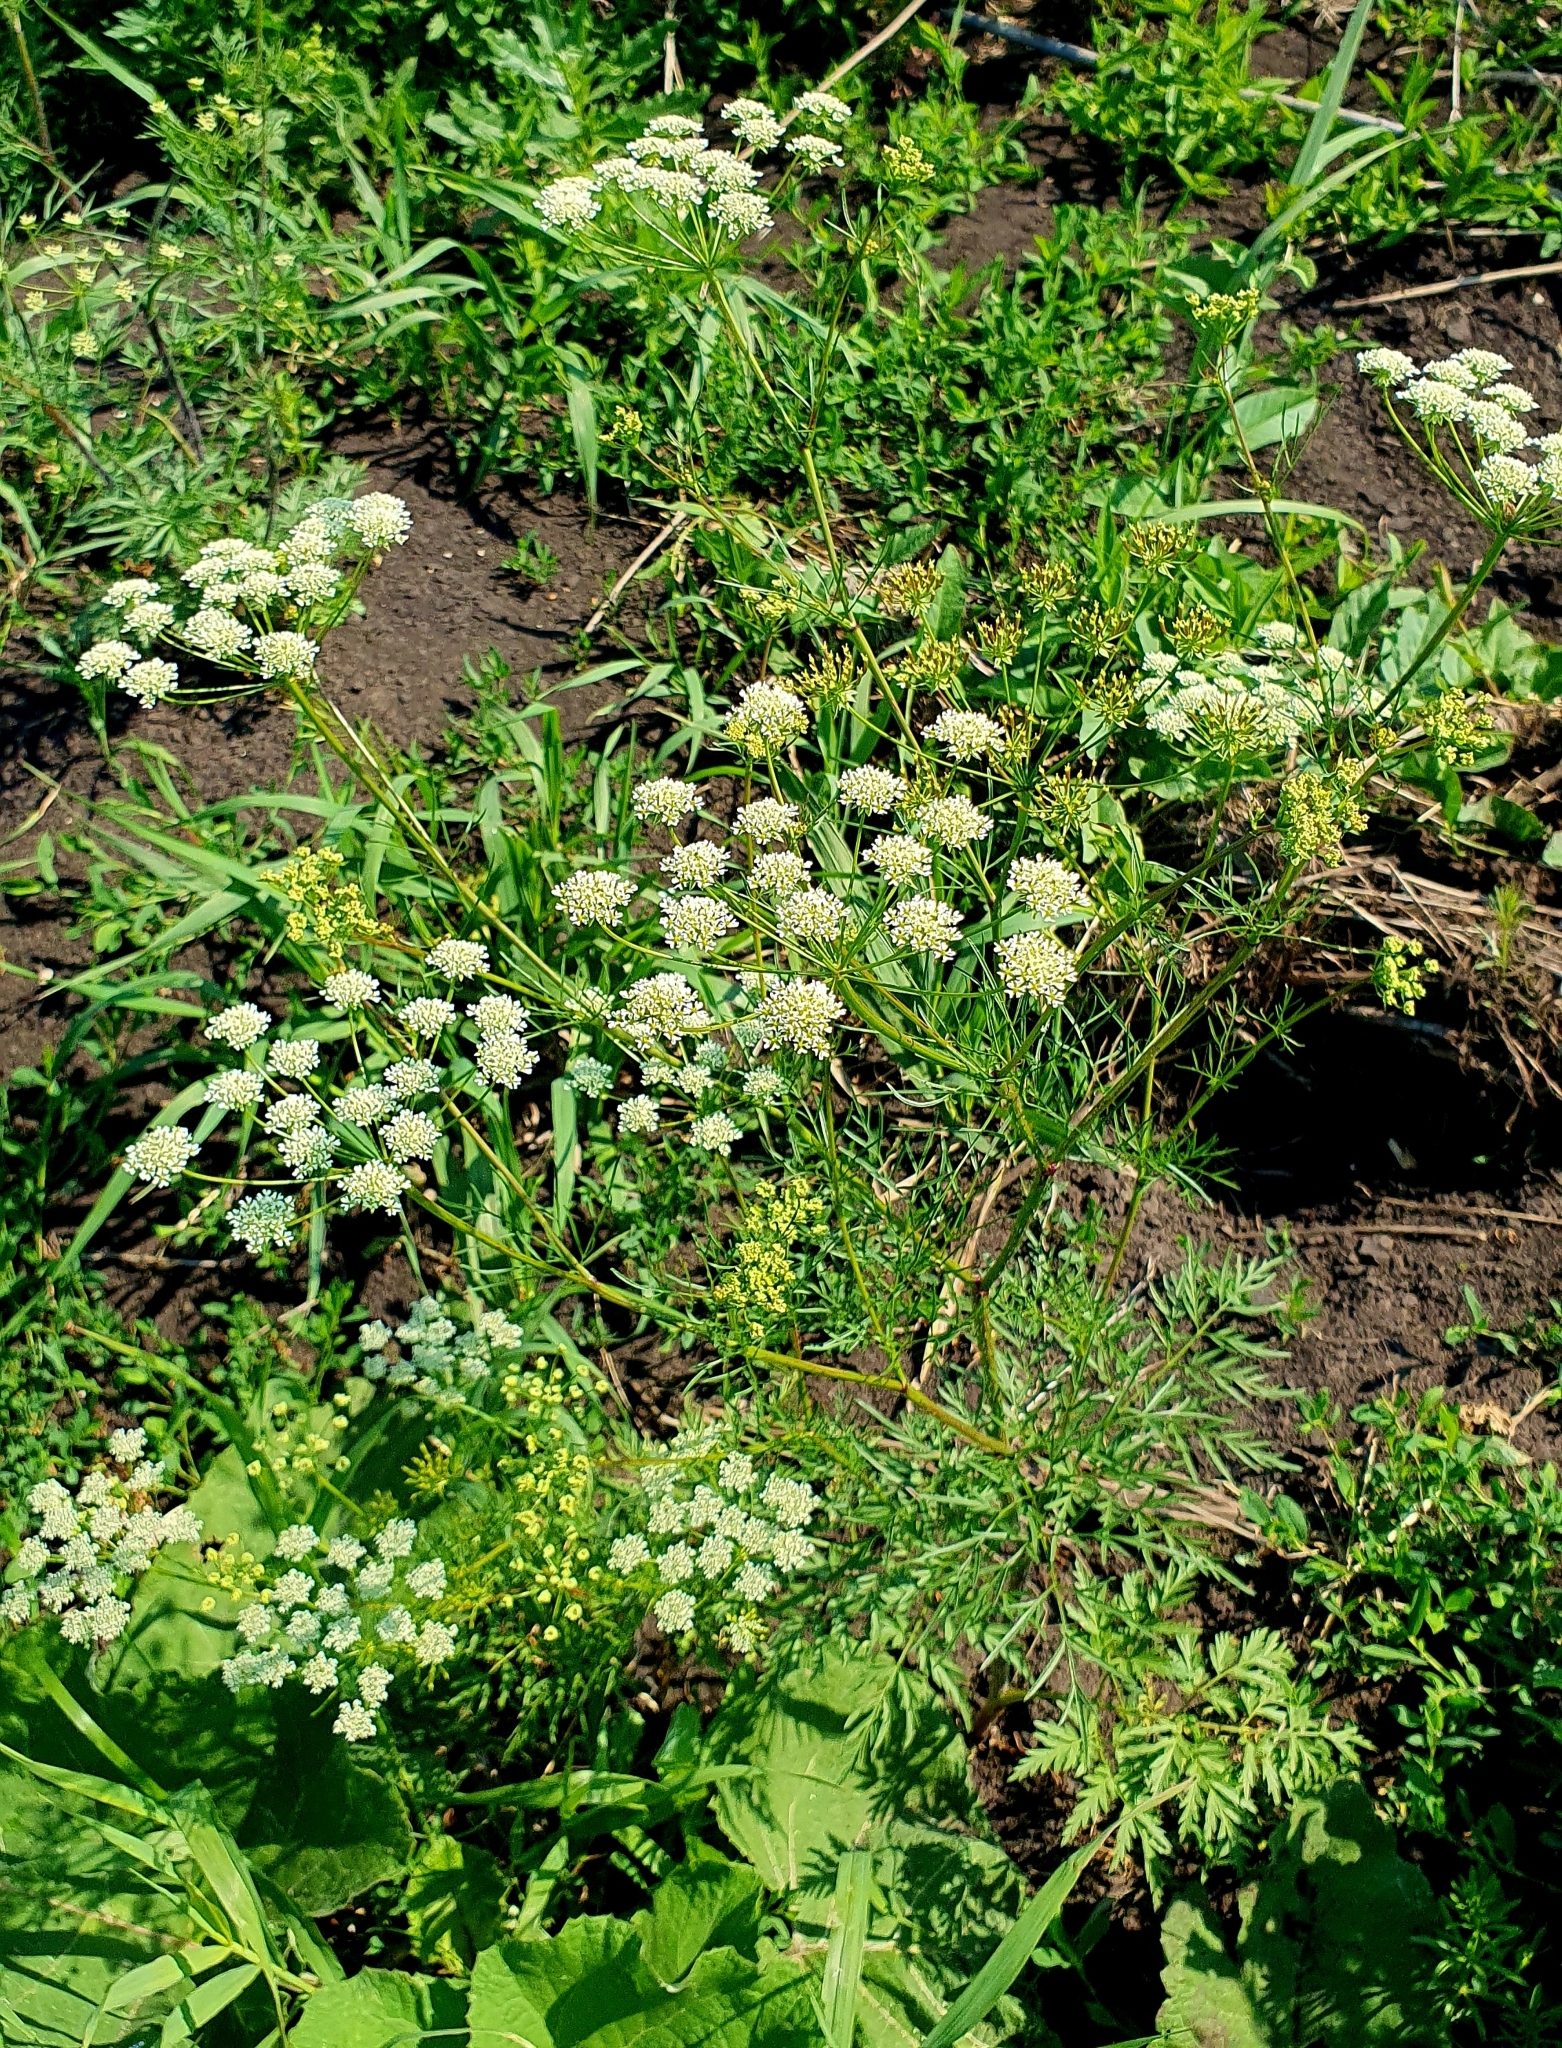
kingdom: Plantae
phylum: Tracheophyta
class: Magnoliopsida
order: Apiales
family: Apiaceae
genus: Chaerophyllum
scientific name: Chaerophyllum bulbosum
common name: Bulbous chervil
